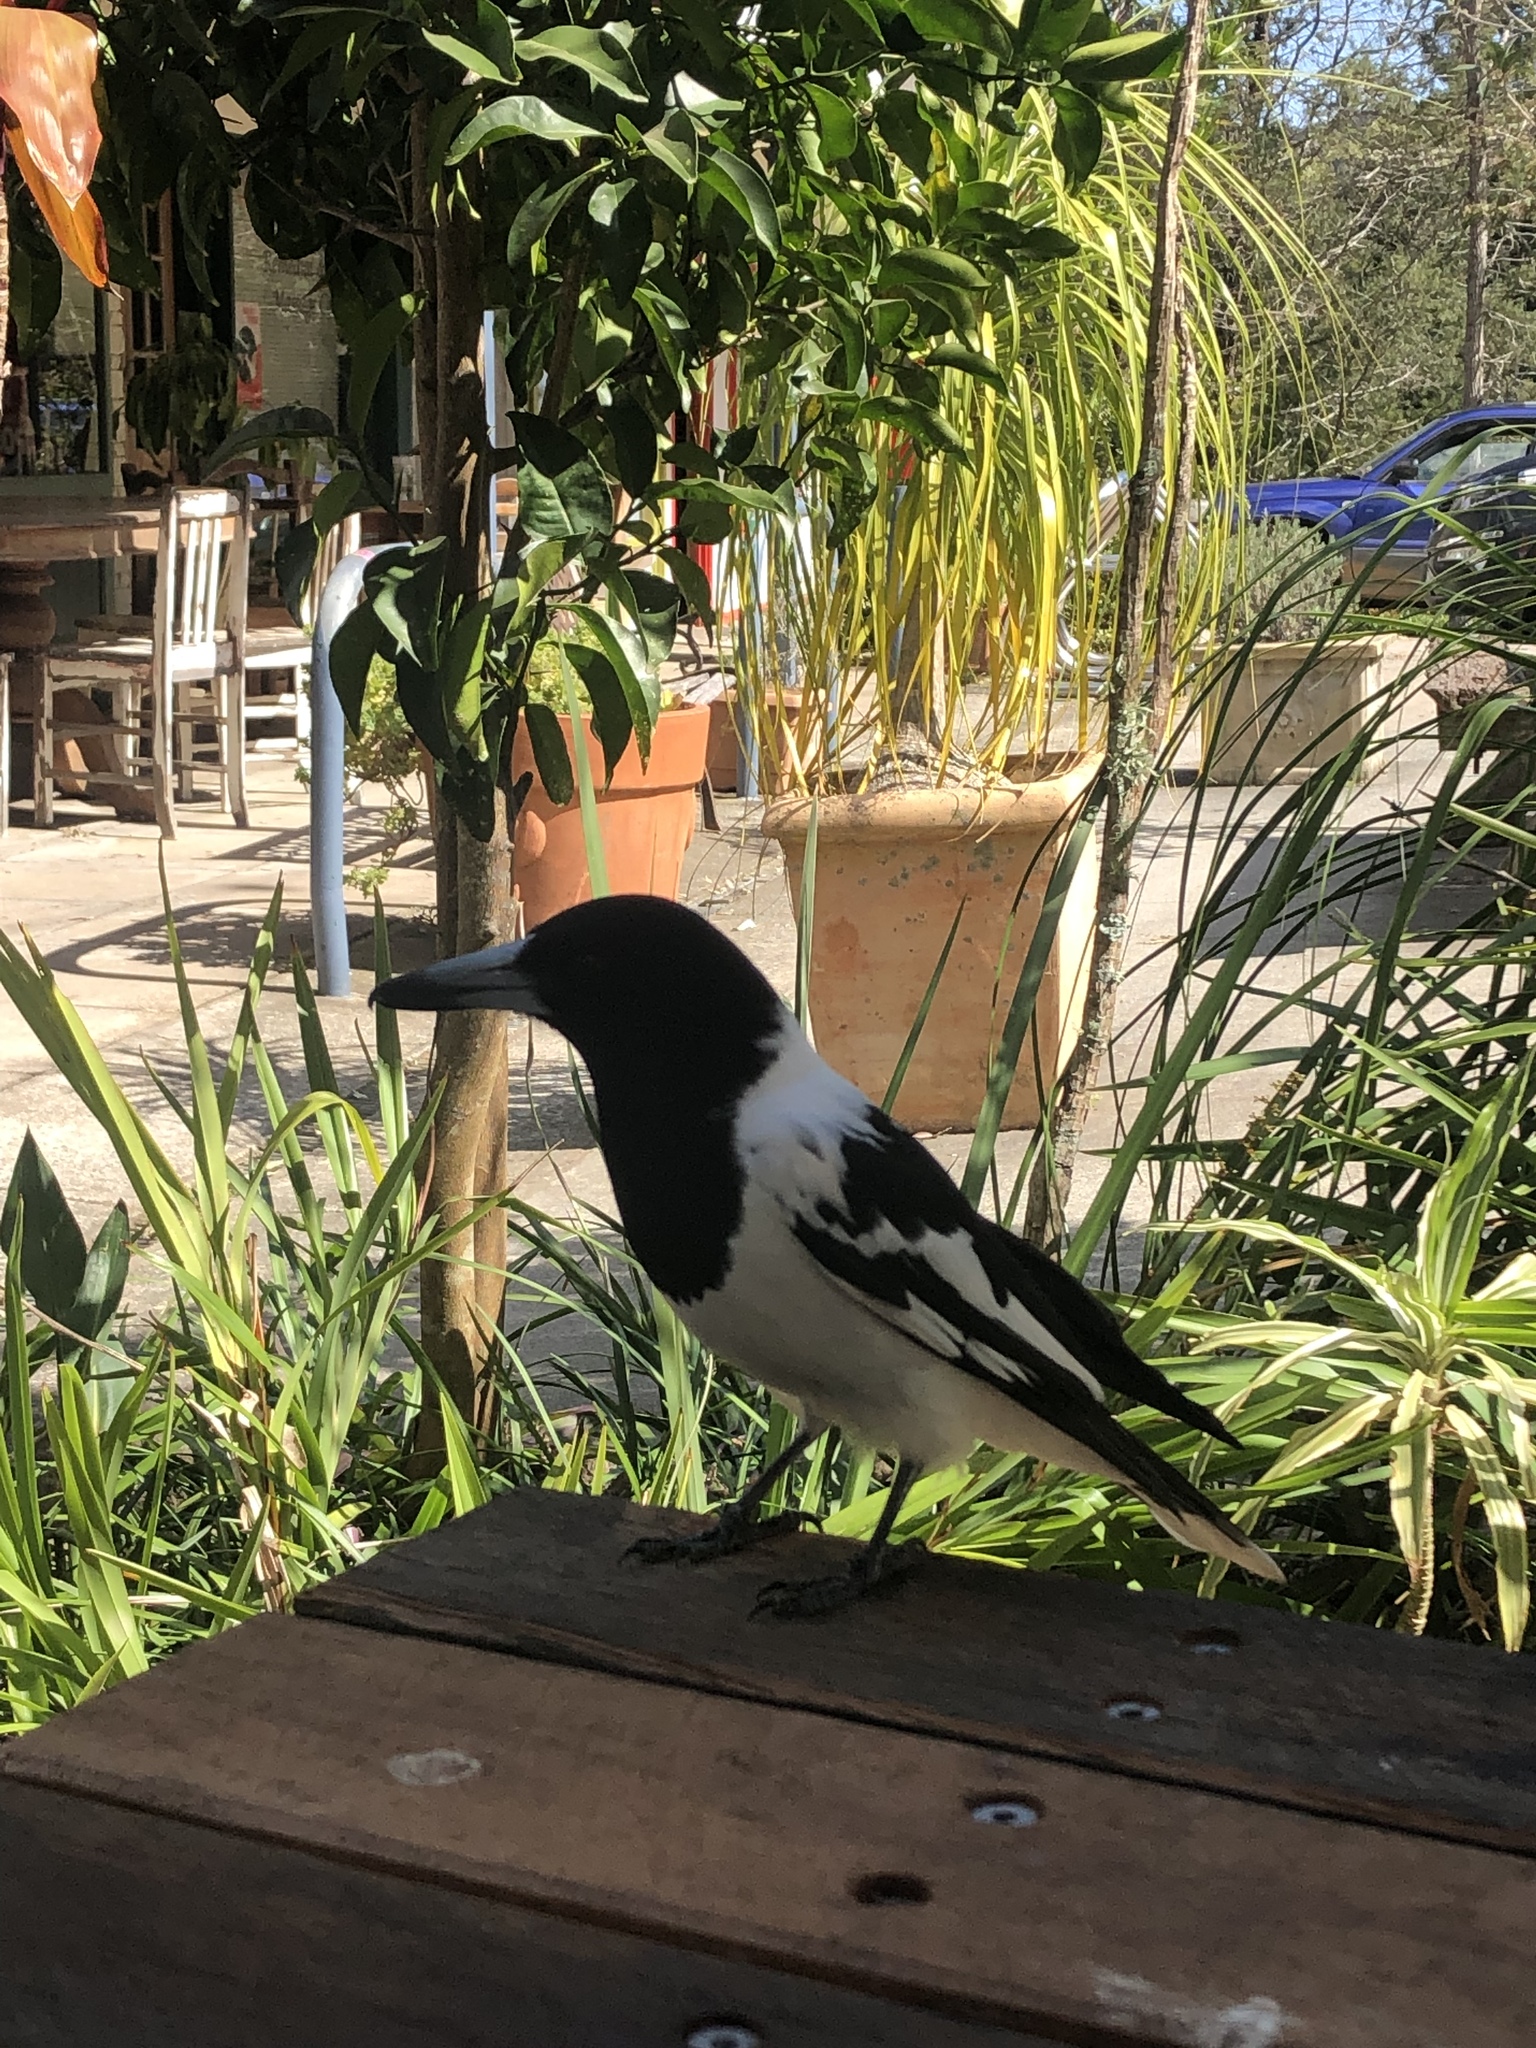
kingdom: Animalia
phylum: Chordata
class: Aves
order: Passeriformes
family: Cracticidae
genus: Cracticus
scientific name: Cracticus nigrogularis
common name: Pied butcherbird
